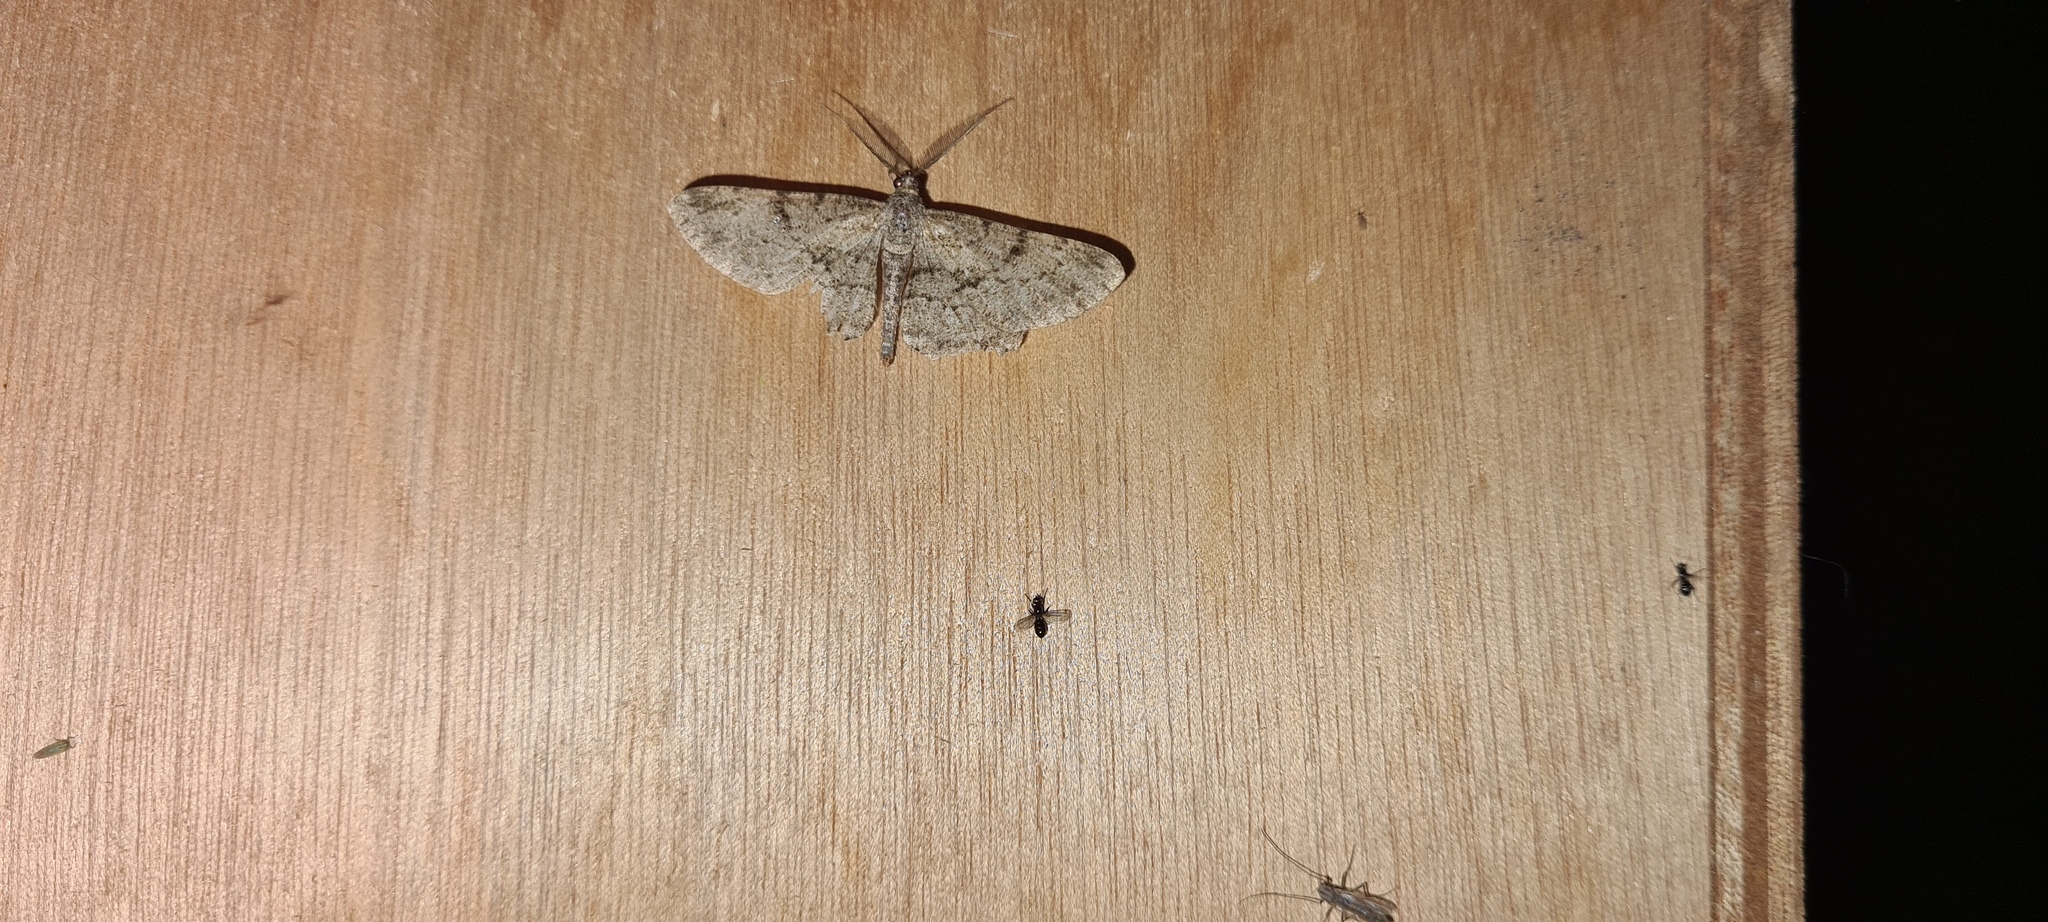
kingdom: Animalia
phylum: Arthropoda
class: Insecta
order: Lepidoptera
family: Geometridae
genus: Peribatodes
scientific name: Peribatodes rhomboidaria
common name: Willow beauty
